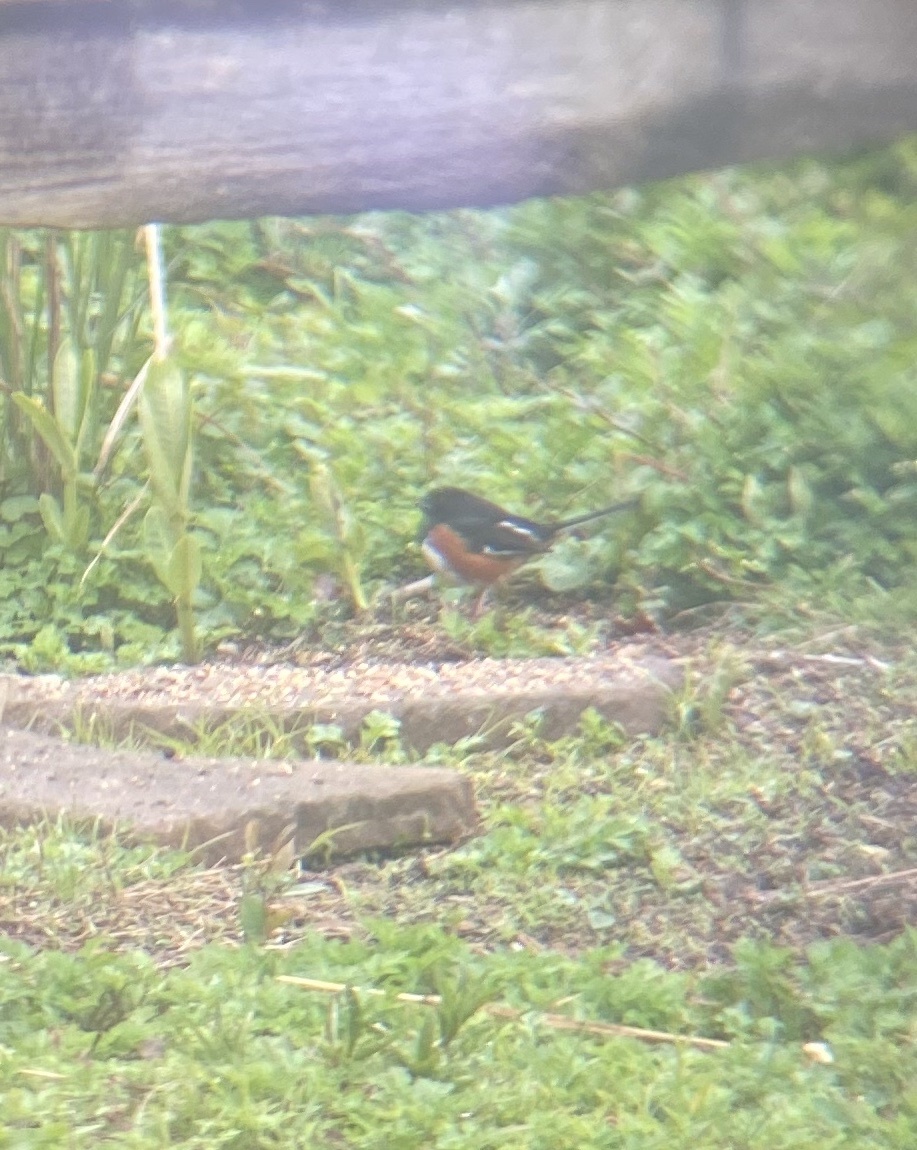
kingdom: Animalia
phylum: Chordata
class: Aves
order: Passeriformes
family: Passerellidae
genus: Pipilo
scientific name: Pipilo erythrophthalmus
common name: Eastern towhee
